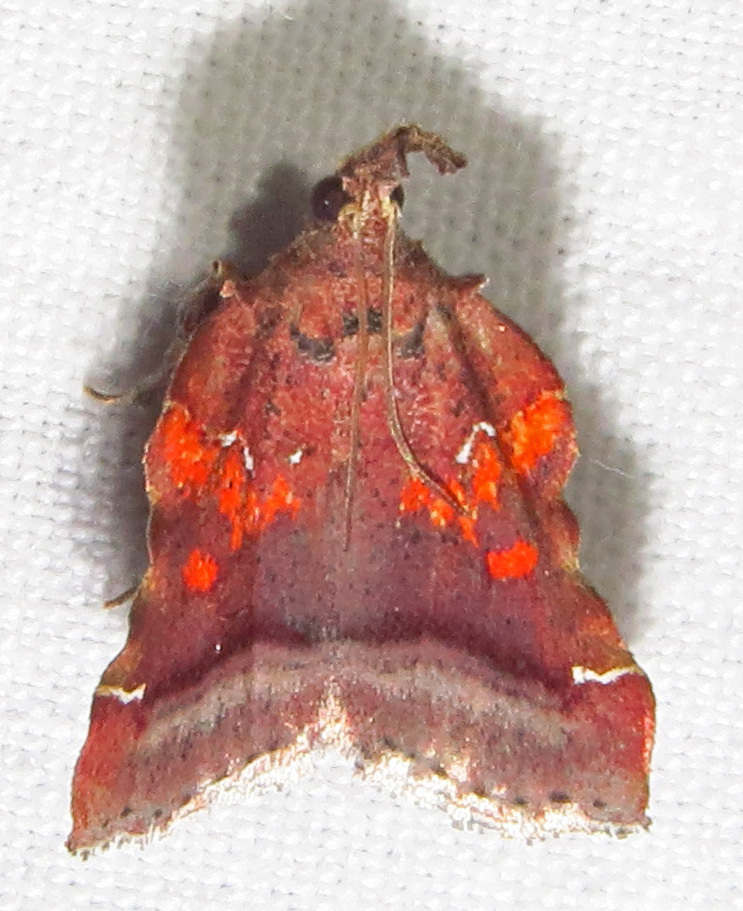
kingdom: Animalia
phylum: Arthropoda
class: Insecta
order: Lepidoptera
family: Pyralidae
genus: Clydonopteron
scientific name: Clydonopteron sacculana
